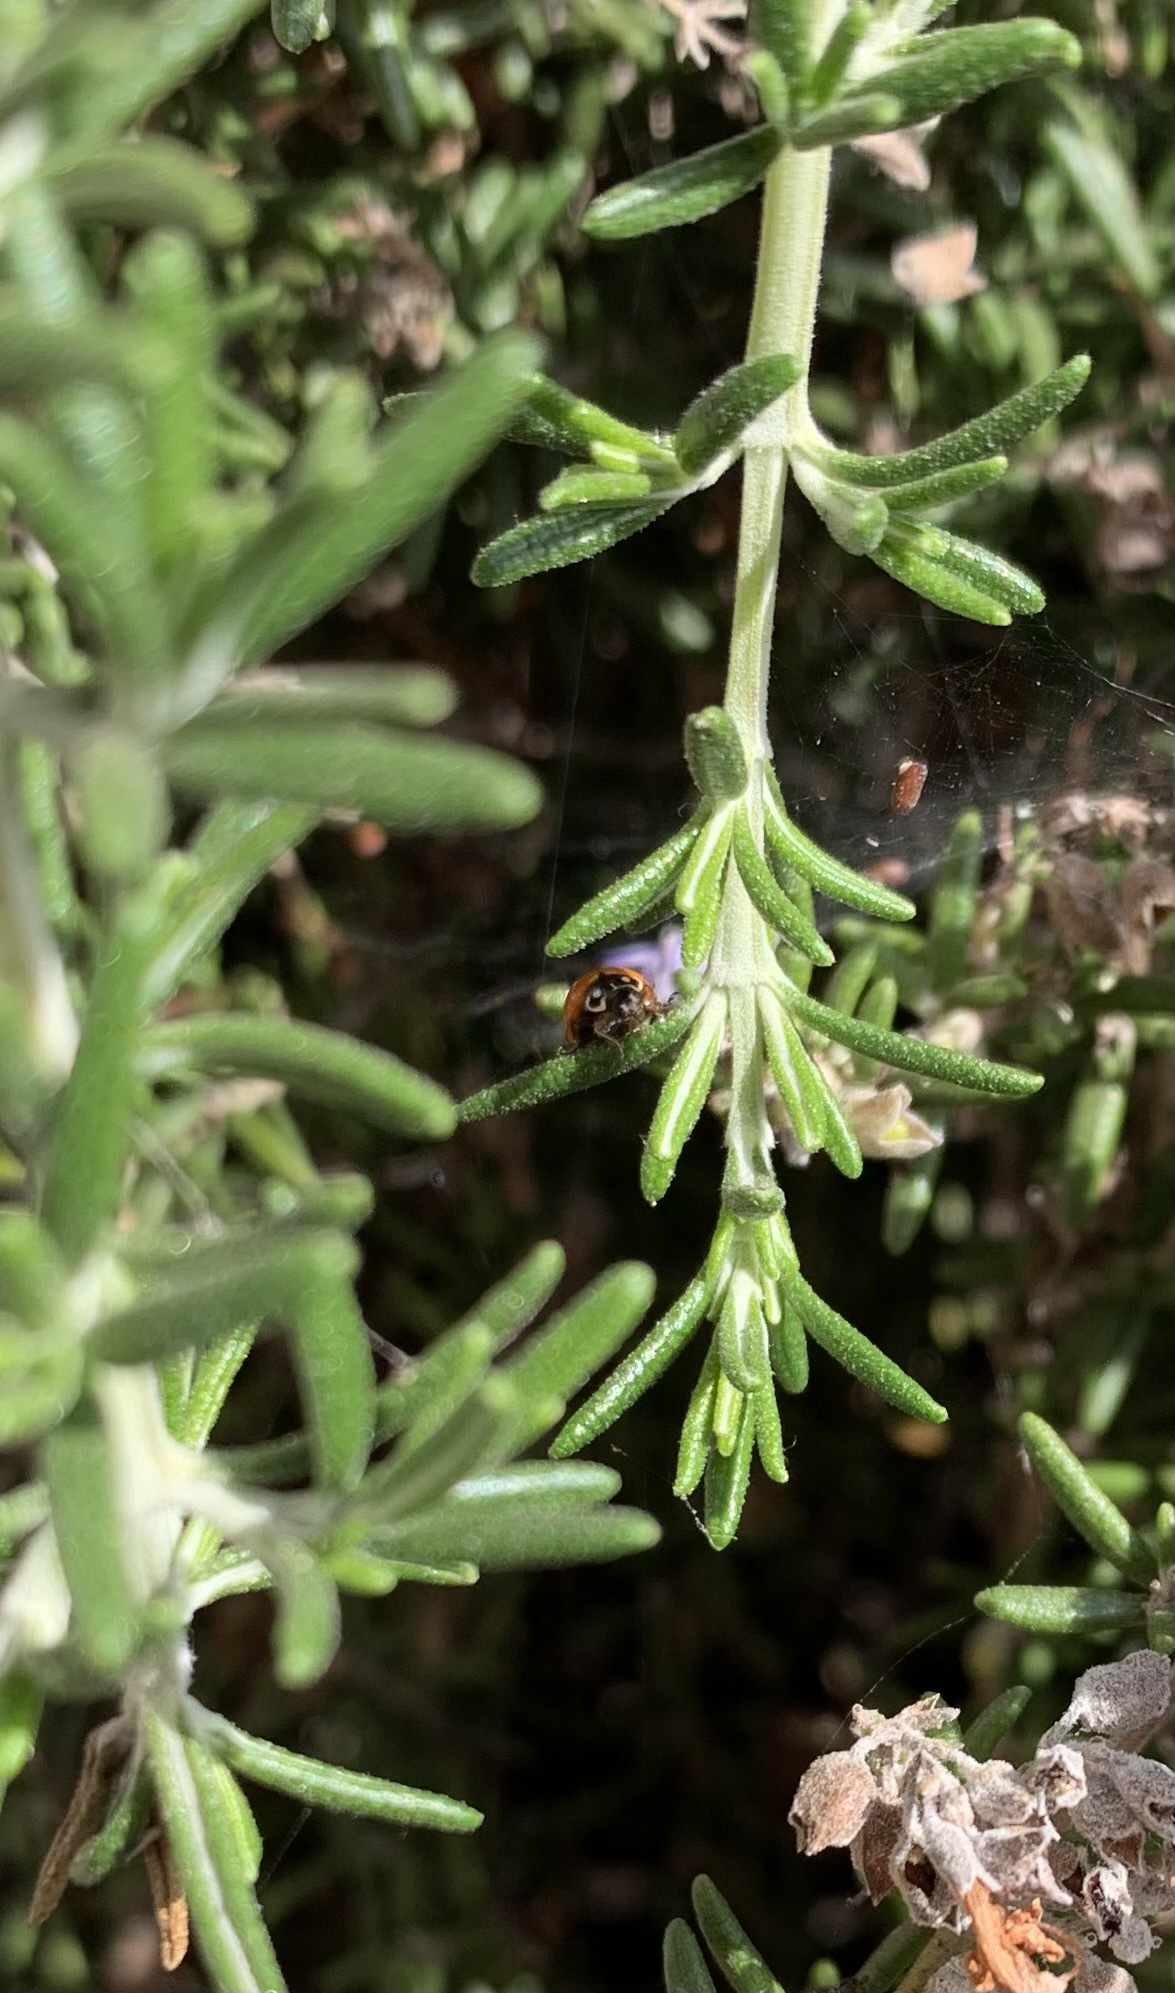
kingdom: Animalia
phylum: Arthropoda
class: Insecta
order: Coleoptera
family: Coccinellidae
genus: Cycloneda
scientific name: Cycloneda sanguinea
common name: Ladybird beetle
